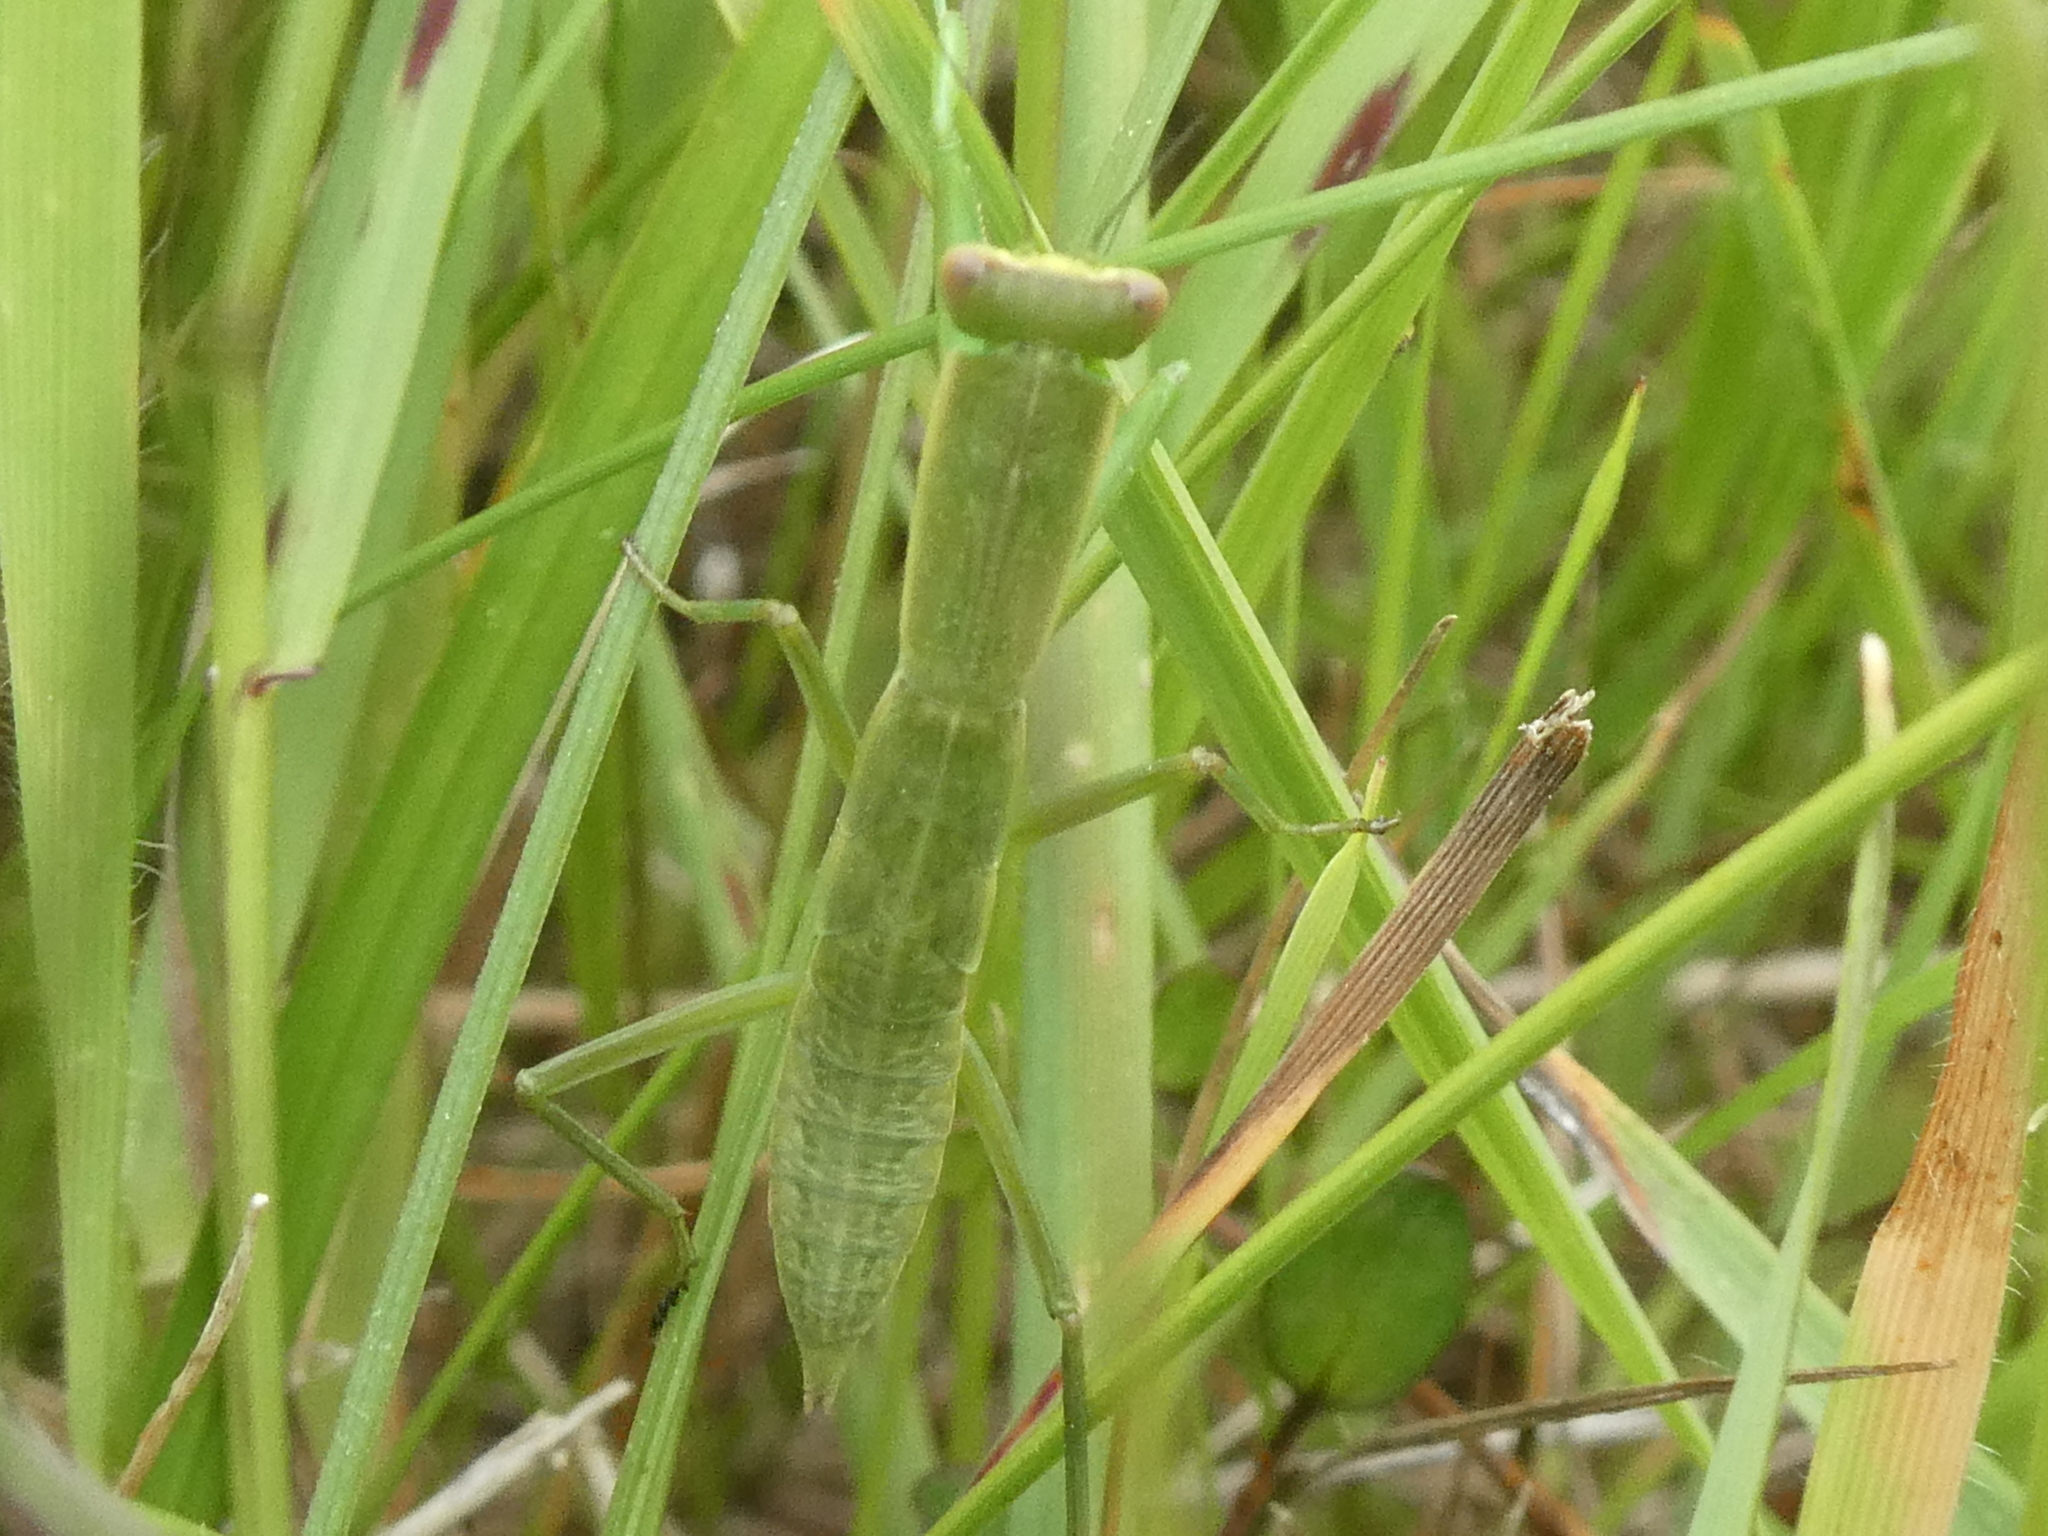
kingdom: Animalia
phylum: Arthropoda
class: Insecta
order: Mantodea
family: Mantidae
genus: Orthodera
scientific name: Orthodera novaezealandiae
